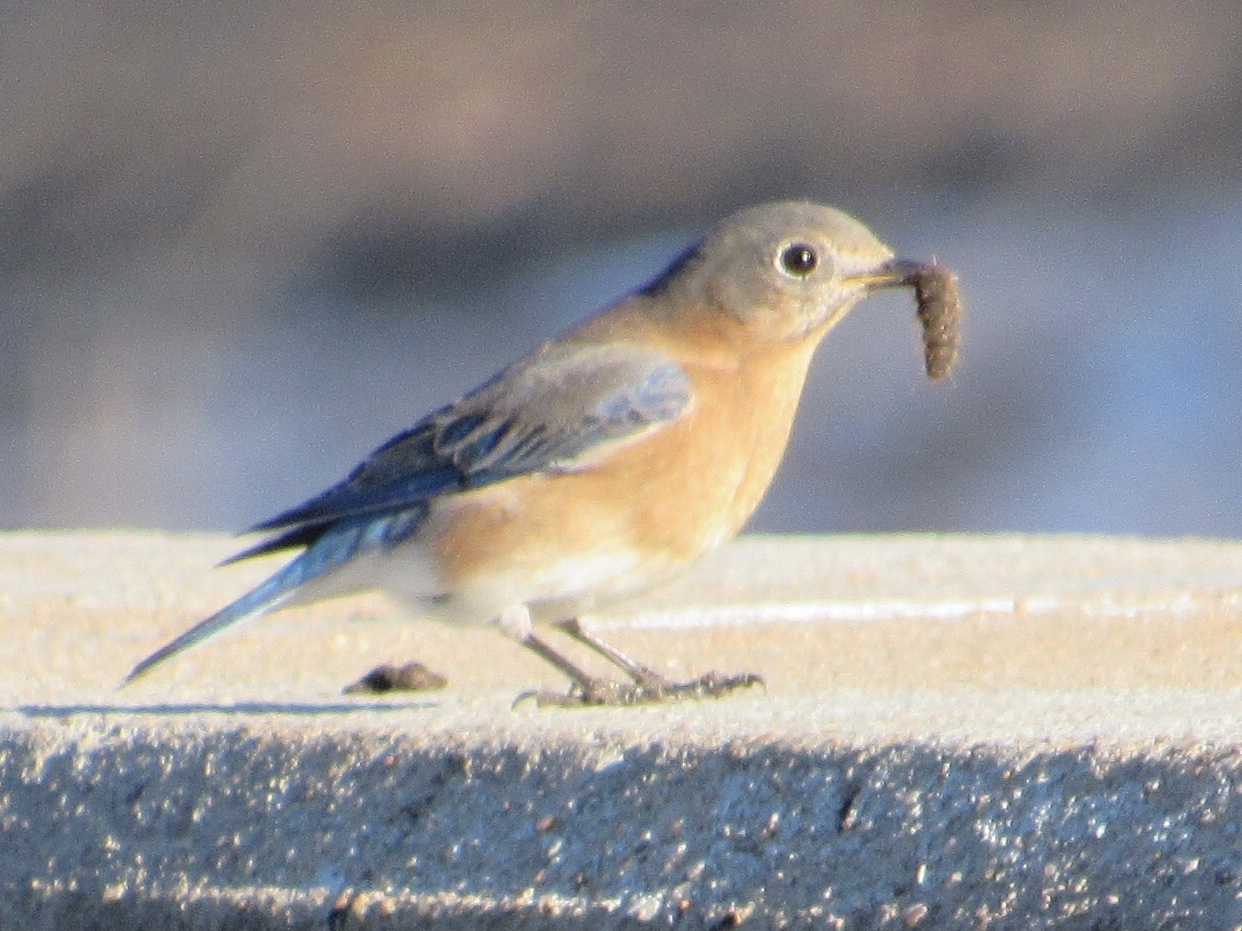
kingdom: Animalia
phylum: Chordata
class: Aves
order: Passeriformes
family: Turdidae
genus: Sialia
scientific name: Sialia sialis
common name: Eastern bluebird
